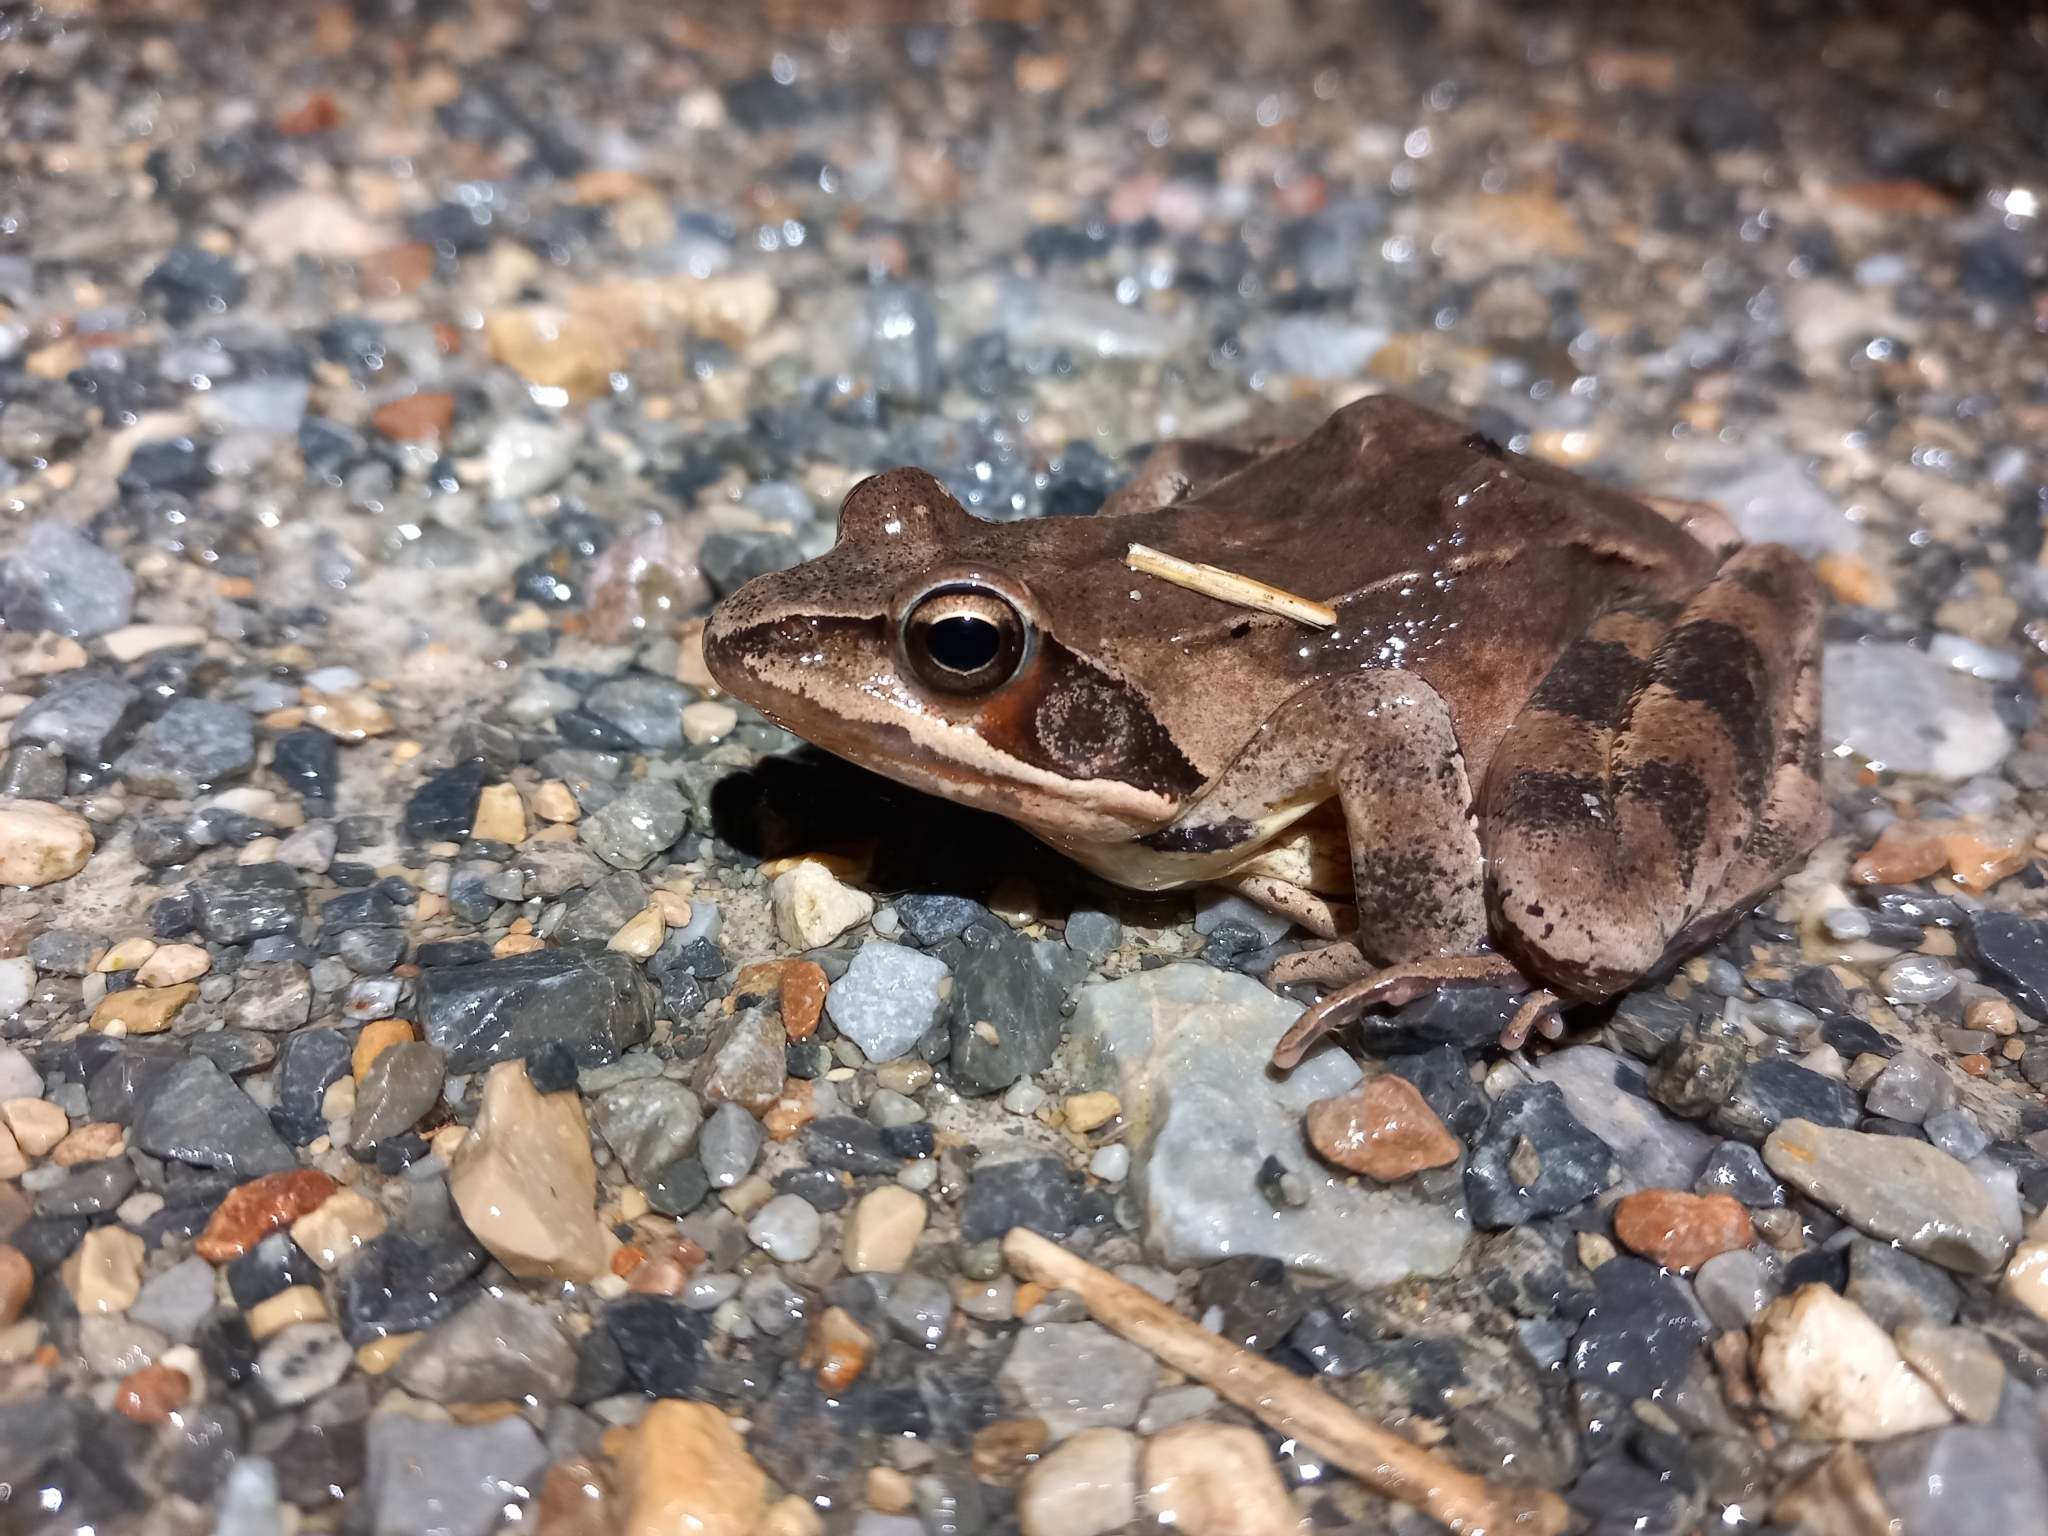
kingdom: Animalia
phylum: Chordata
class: Amphibia
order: Anura
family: Ranidae
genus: Rana
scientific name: Rana dalmatina
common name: Agile frog
